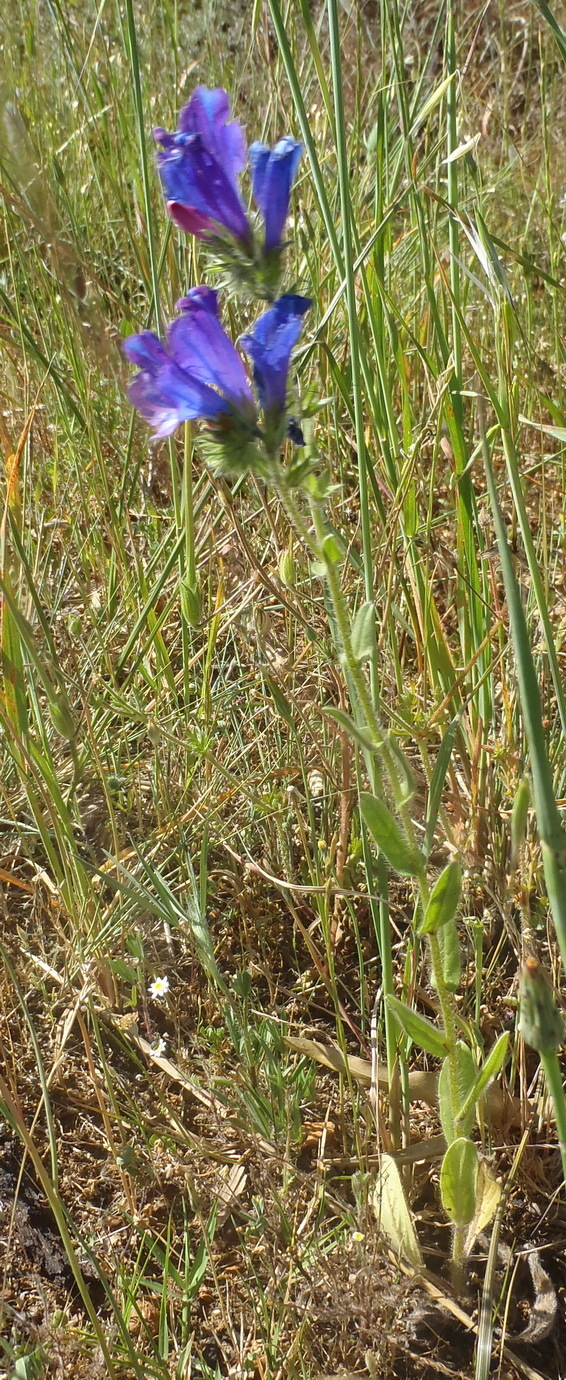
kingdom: Plantae
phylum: Tracheophyta
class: Magnoliopsida
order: Boraginales
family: Boraginaceae
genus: Echium
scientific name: Echium plantagineum
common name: Purple viper's-bugloss
